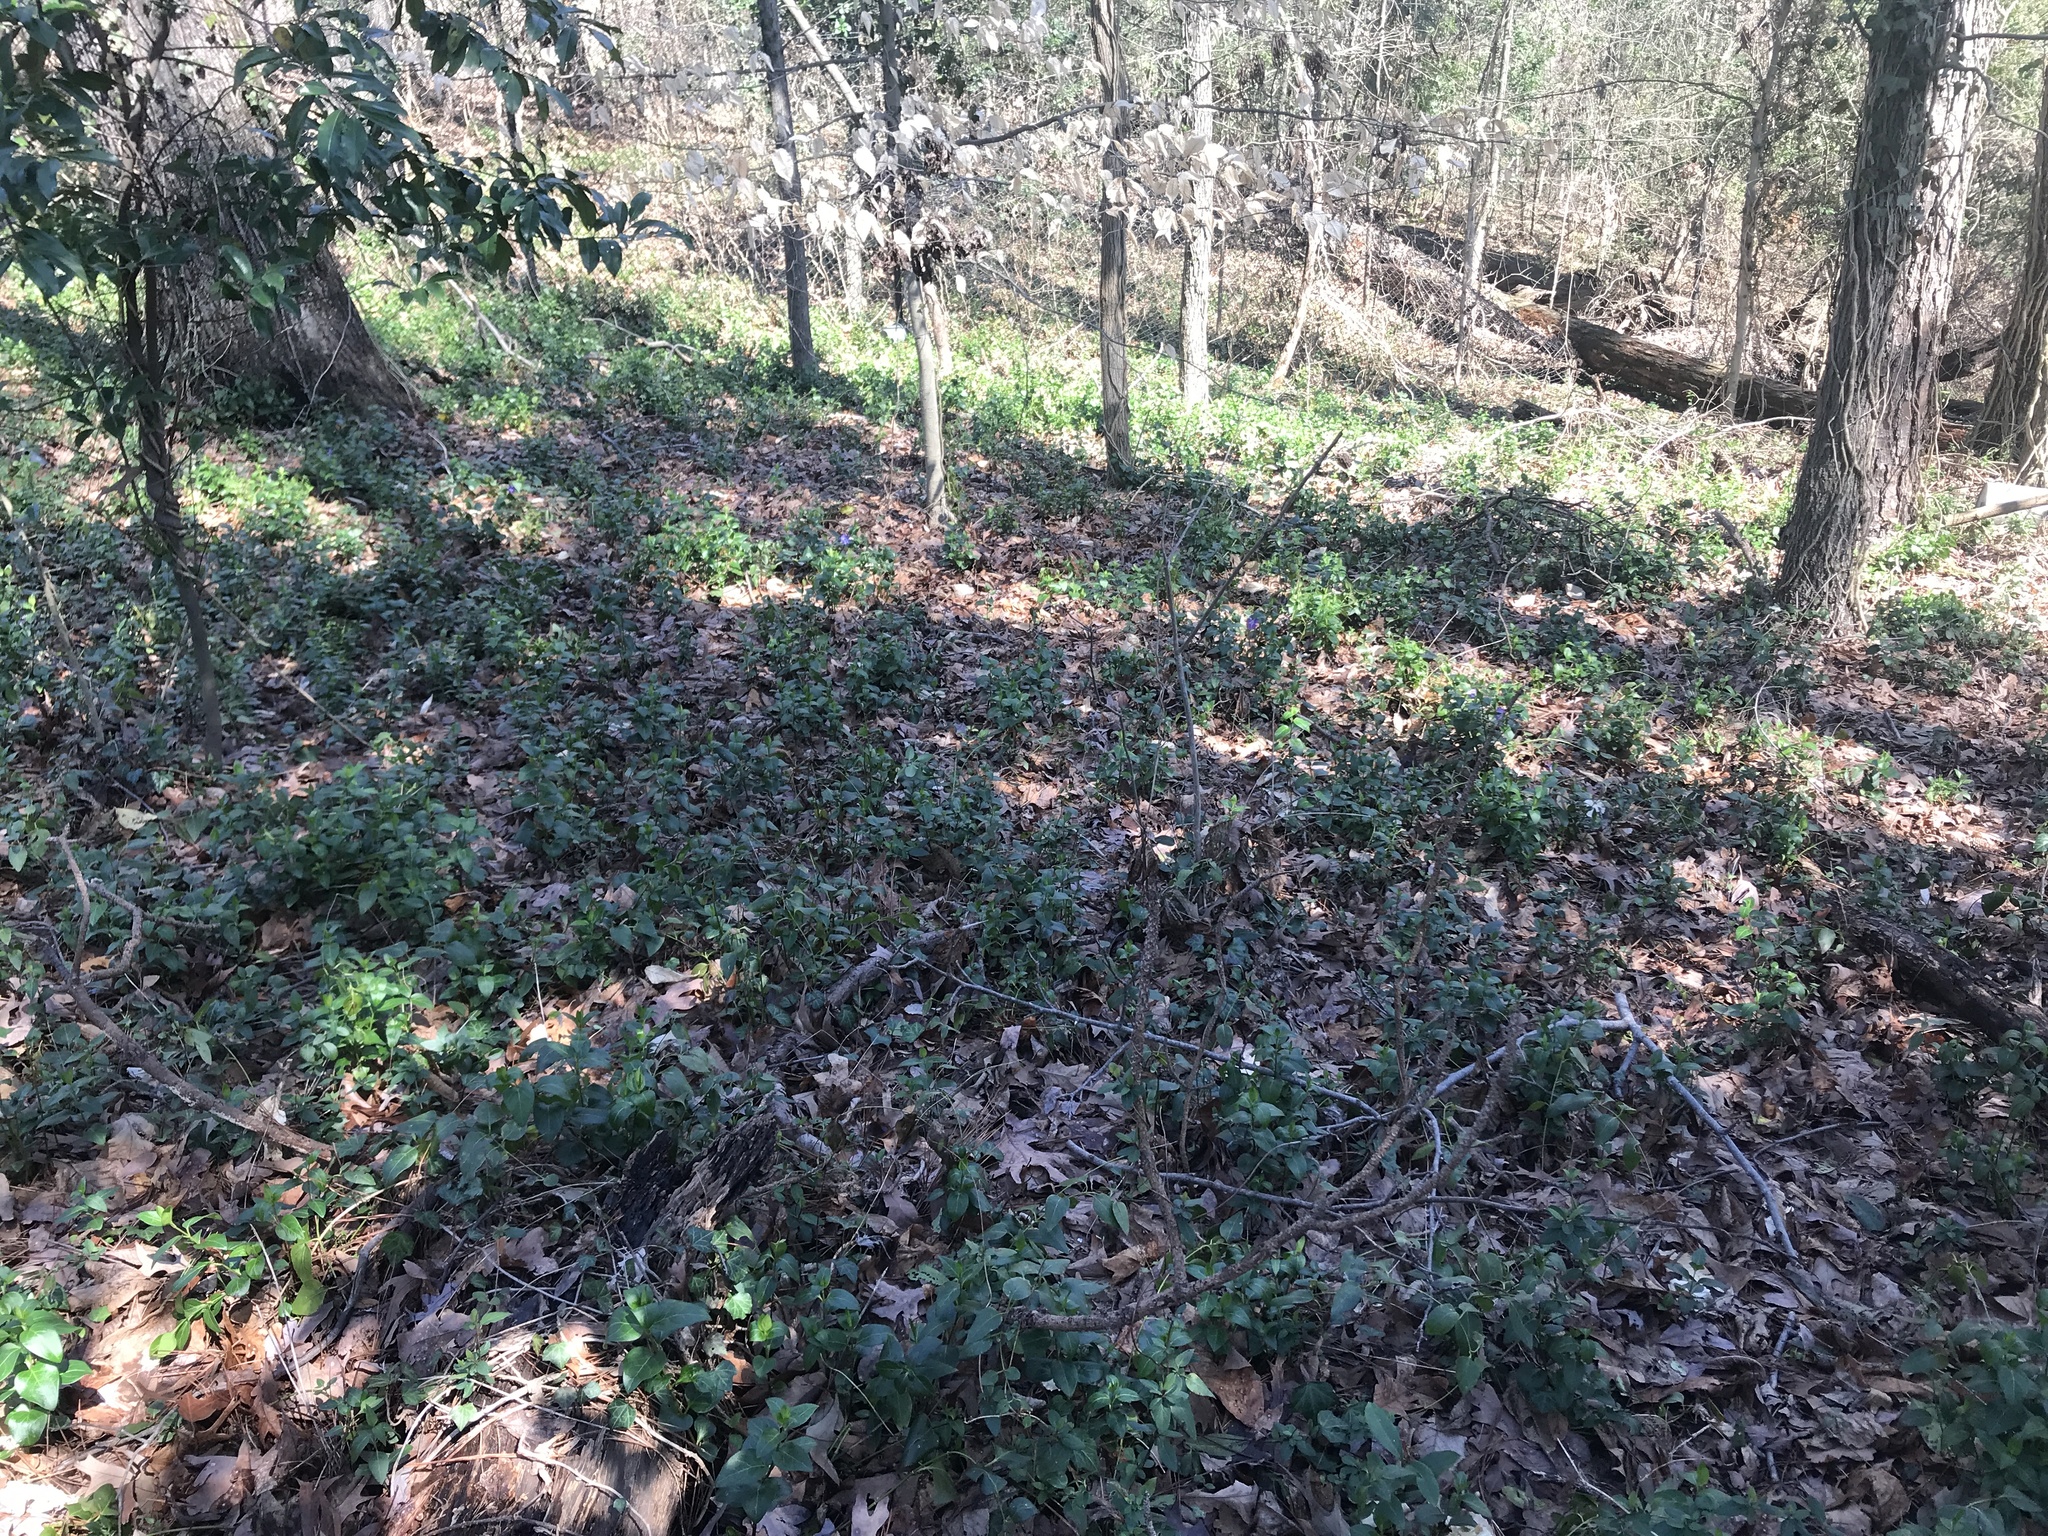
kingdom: Plantae
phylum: Tracheophyta
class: Magnoliopsida
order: Gentianales
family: Apocynaceae
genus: Vinca
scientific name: Vinca major
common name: Greater periwinkle
